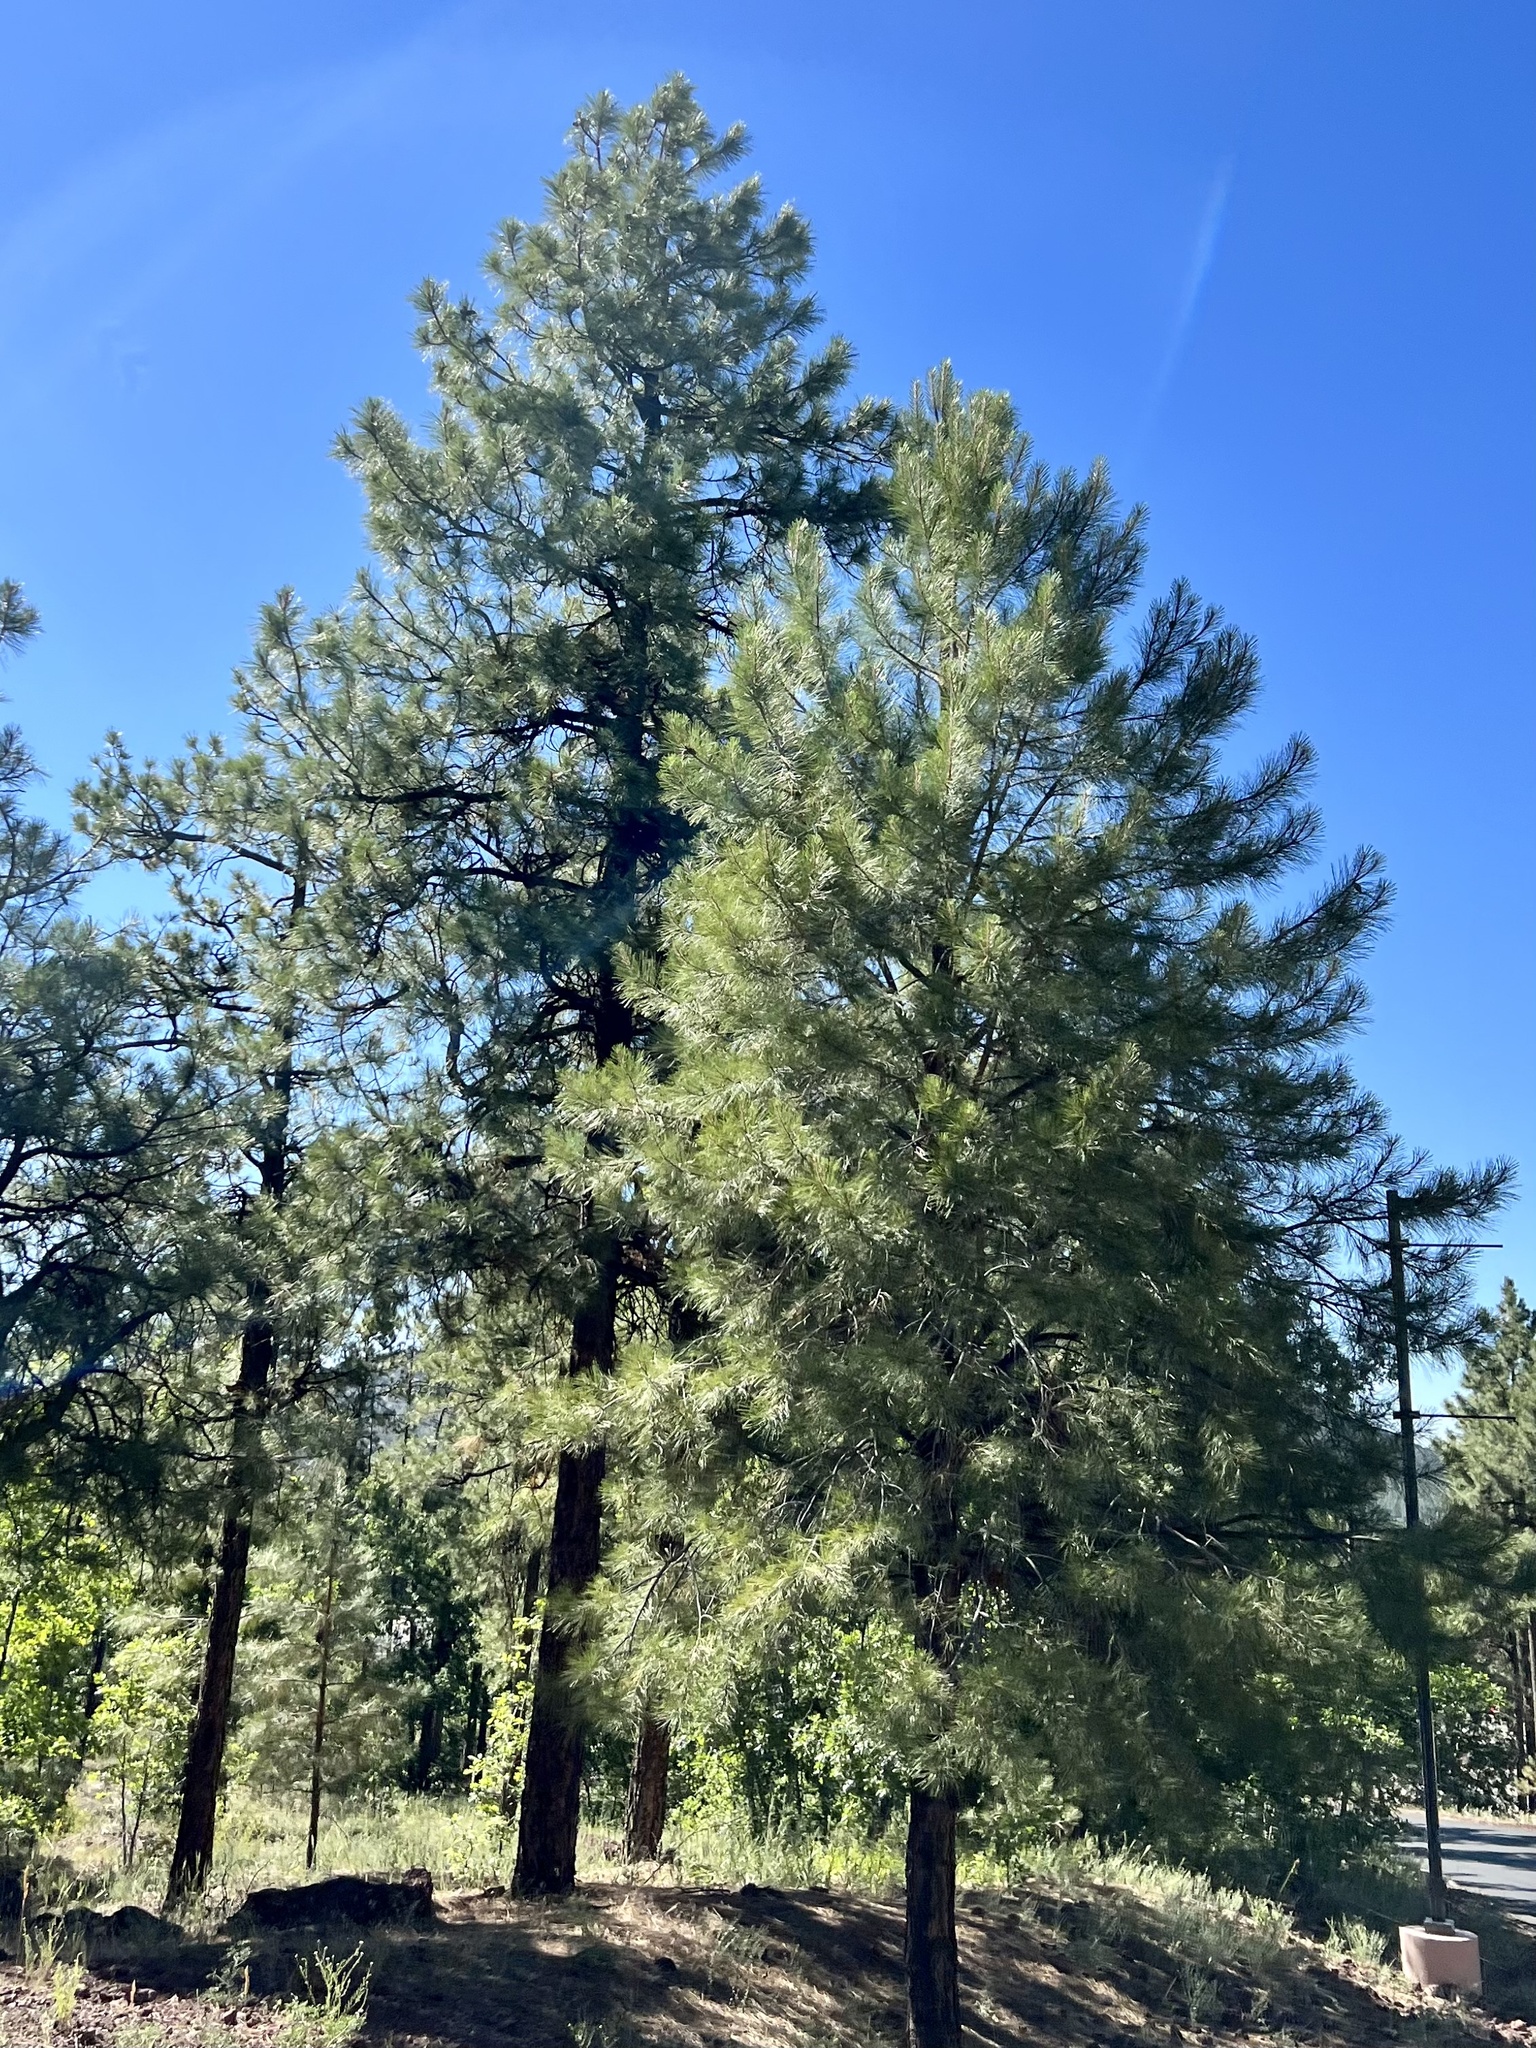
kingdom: Plantae
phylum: Tracheophyta
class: Pinopsida
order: Pinales
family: Pinaceae
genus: Pinus
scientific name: Pinus ponderosa
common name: Western yellow-pine
